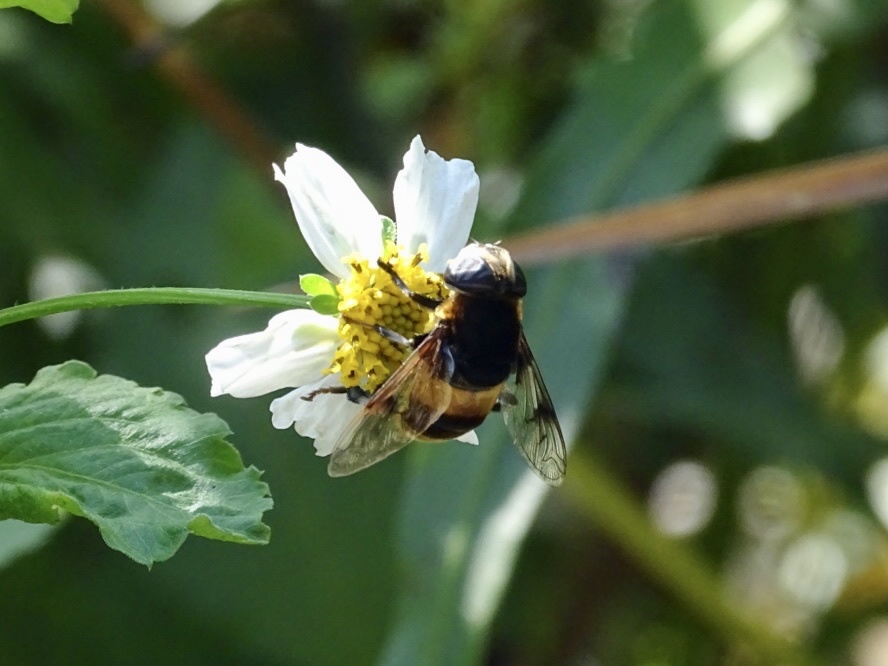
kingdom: Animalia
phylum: Arthropoda
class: Insecta
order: Diptera
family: Syrphidae
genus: Phytomia
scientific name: Phytomia zonata
